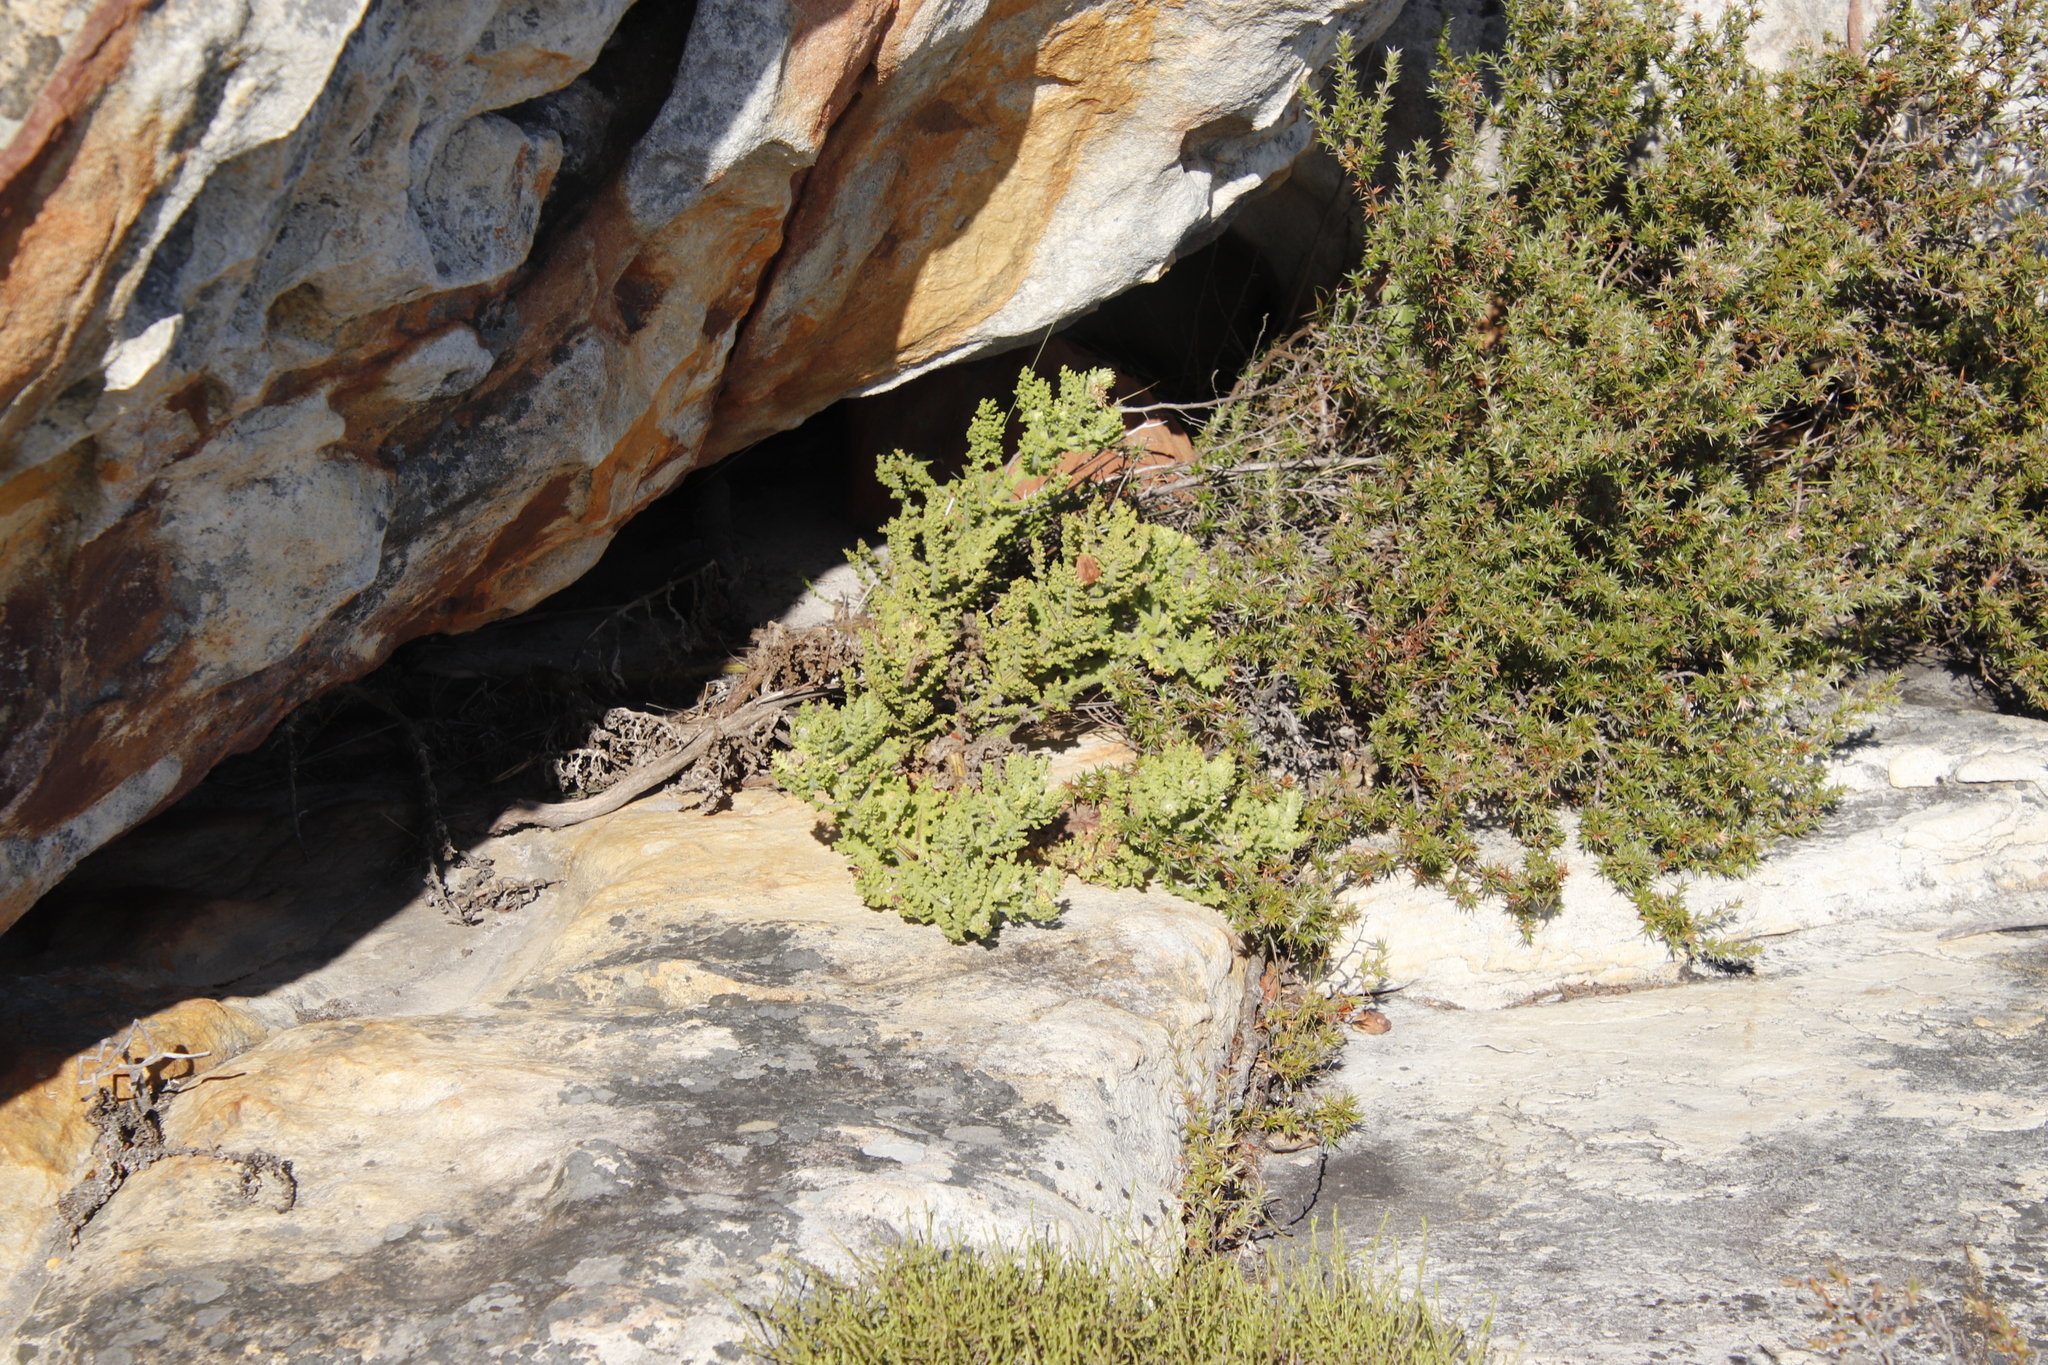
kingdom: Plantae
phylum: Tracheophyta
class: Magnoliopsida
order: Asterales
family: Asteraceae
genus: Arctotis
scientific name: Arctotis aspera
